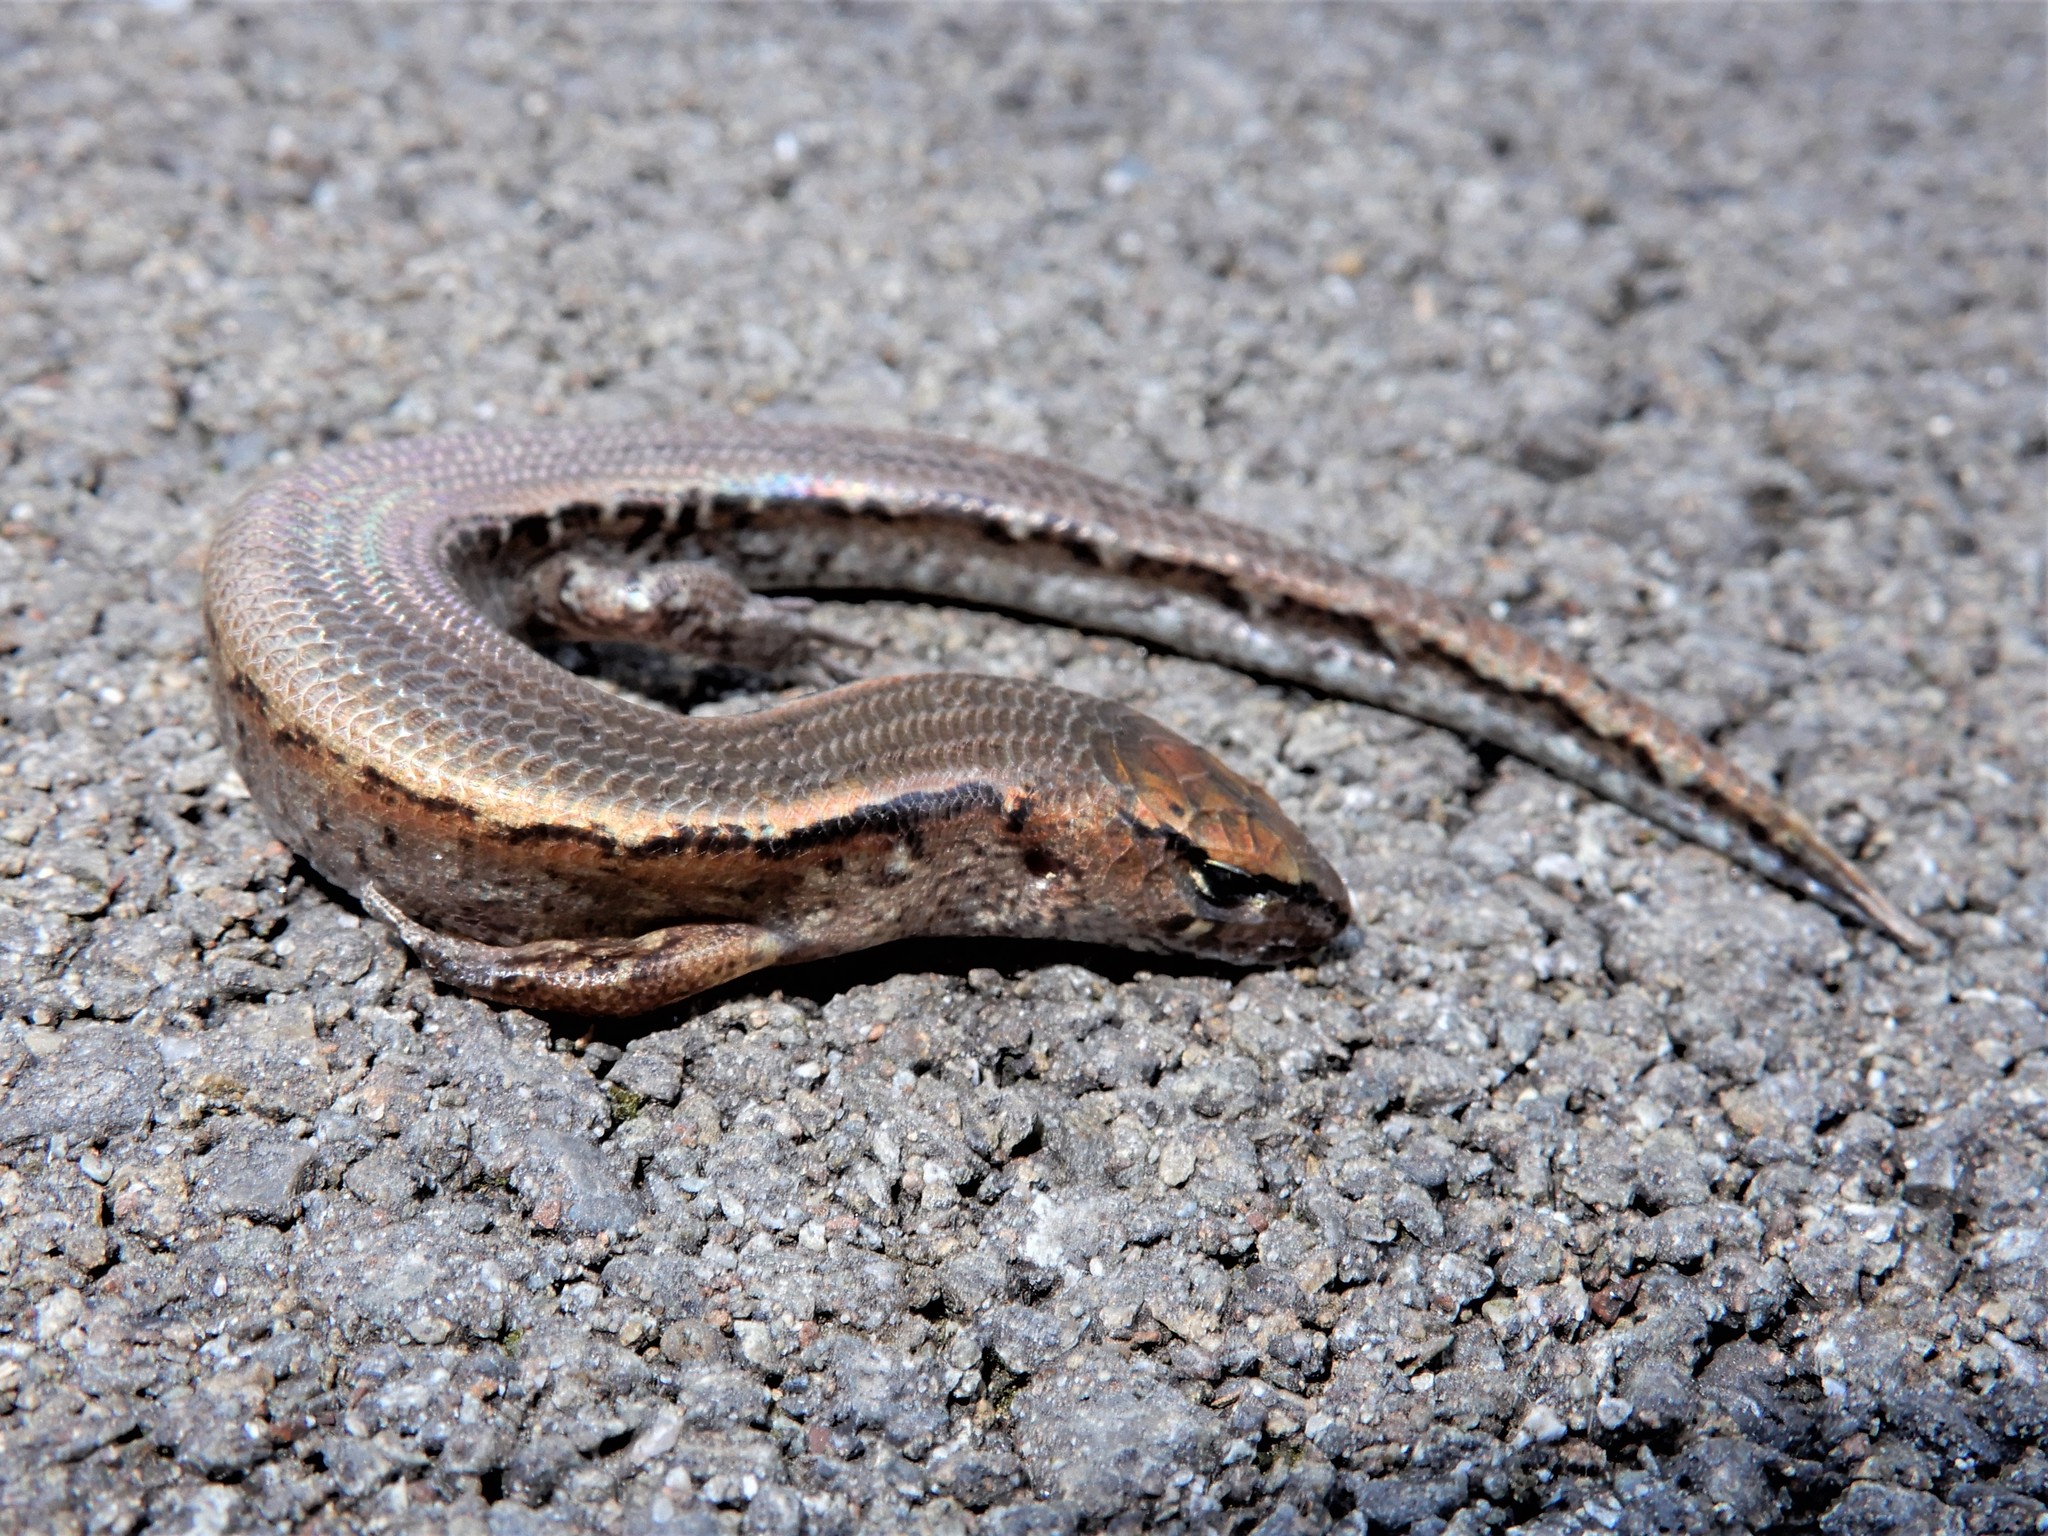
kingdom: Animalia
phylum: Chordata
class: Squamata
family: Scincidae
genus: Oligosoma
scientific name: Oligosoma ornatum
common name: Gray's ornate skink
